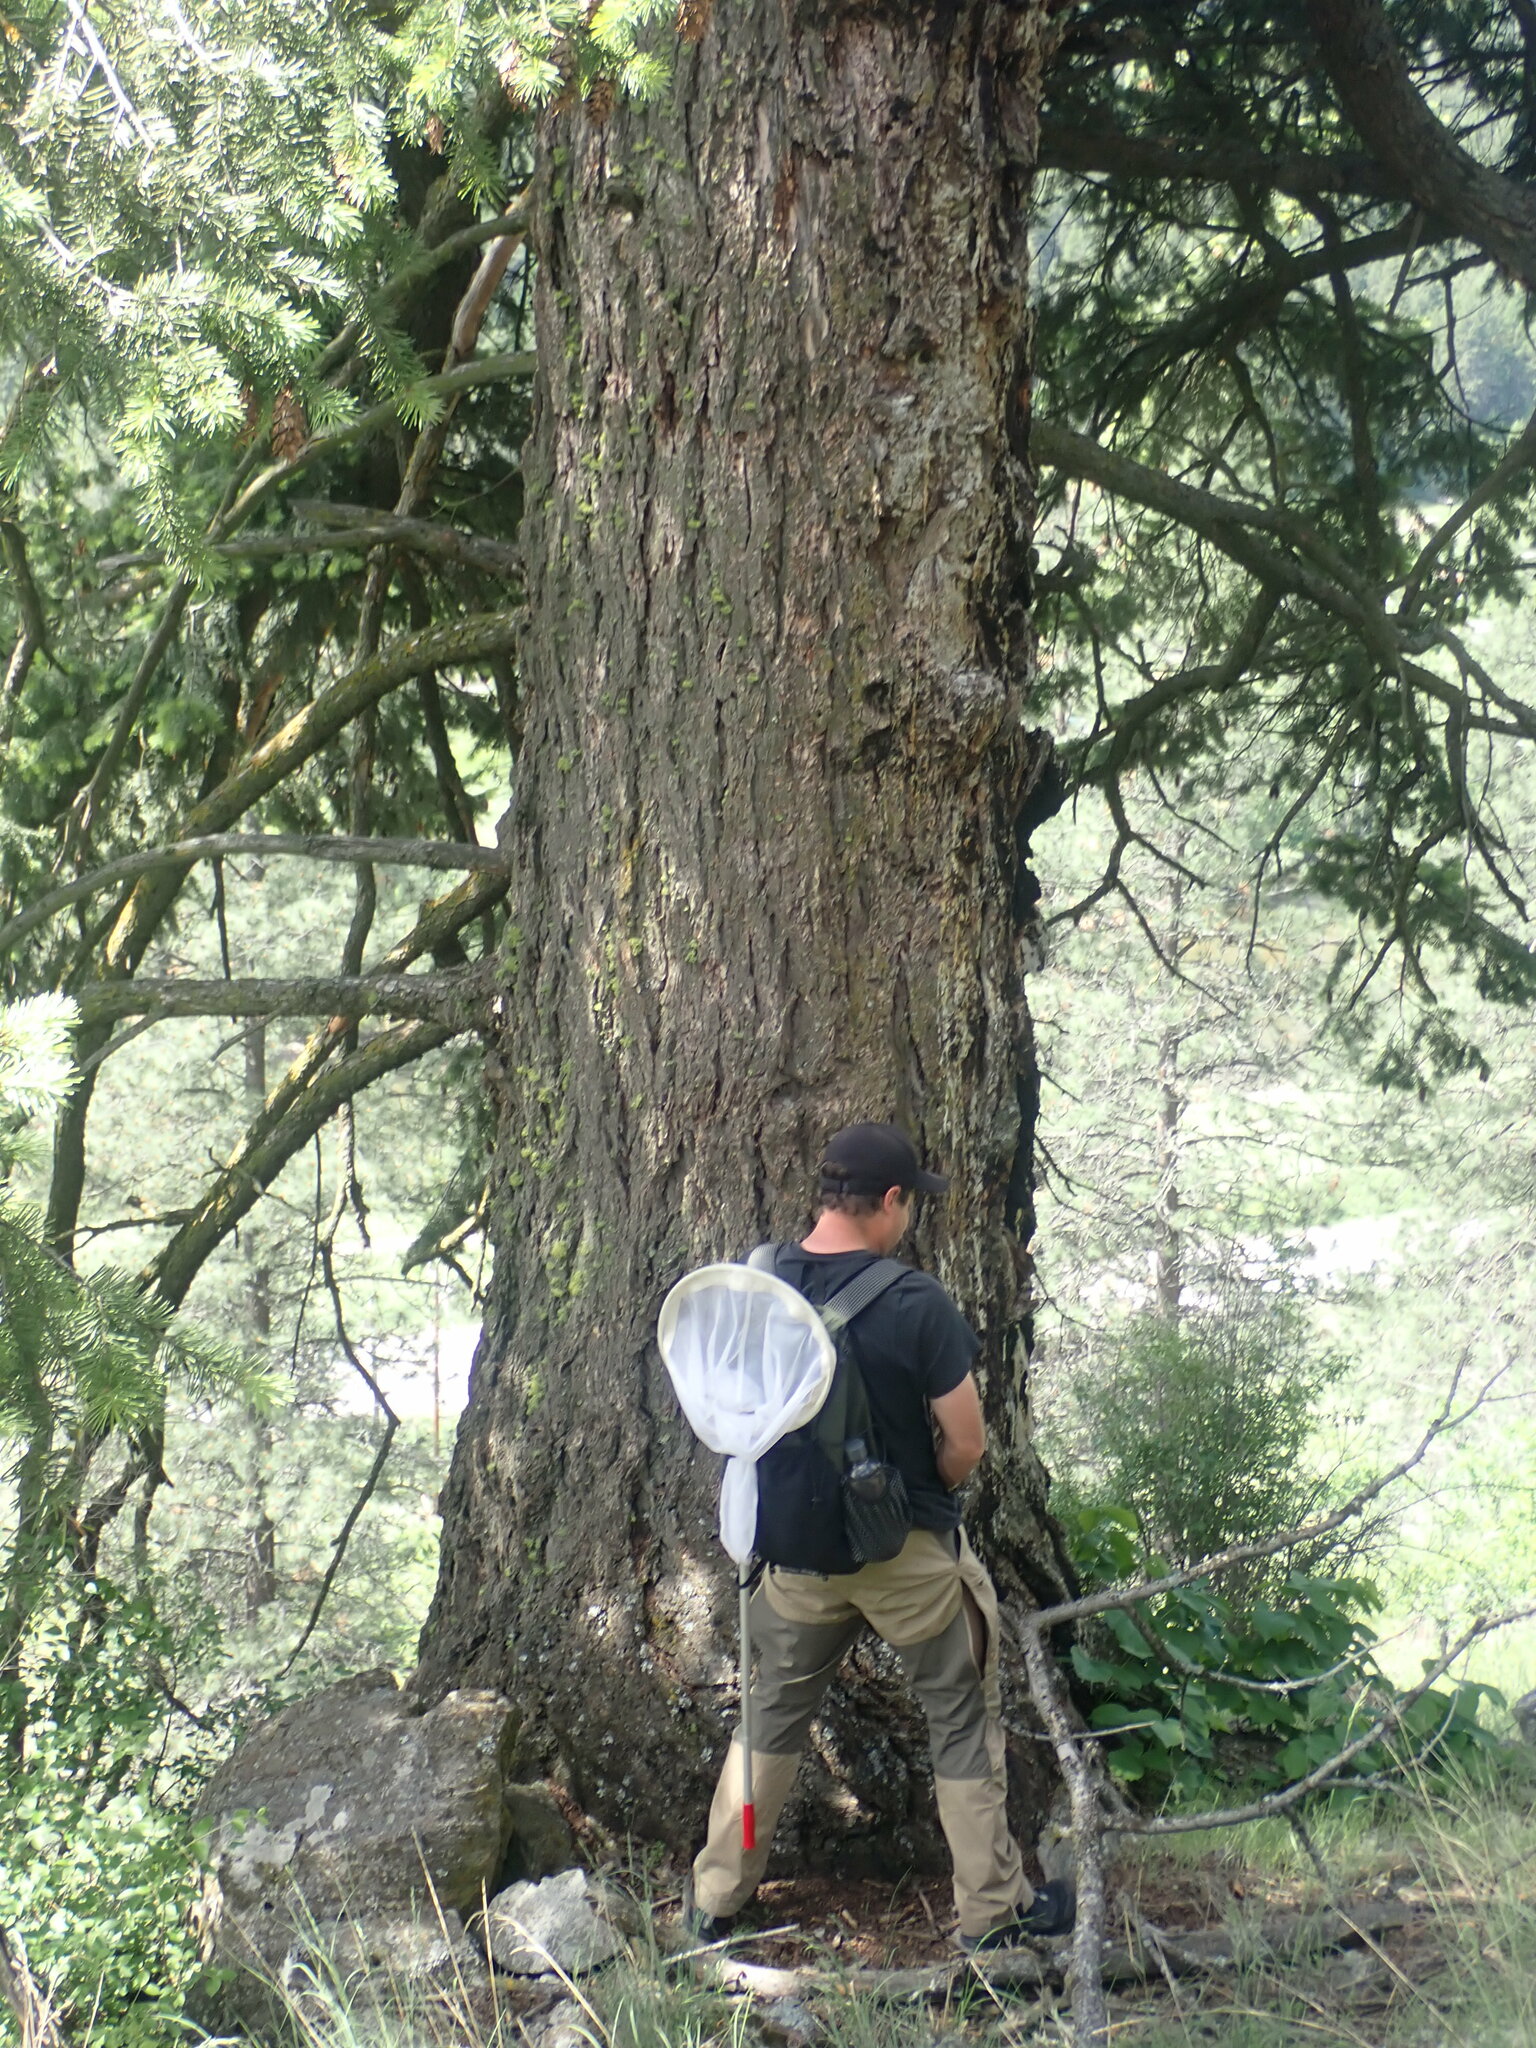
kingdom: Plantae
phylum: Tracheophyta
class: Pinopsida
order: Pinales
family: Pinaceae
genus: Pseudotsuga
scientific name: Pseudotsuga menziesii
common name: Douglas fir
